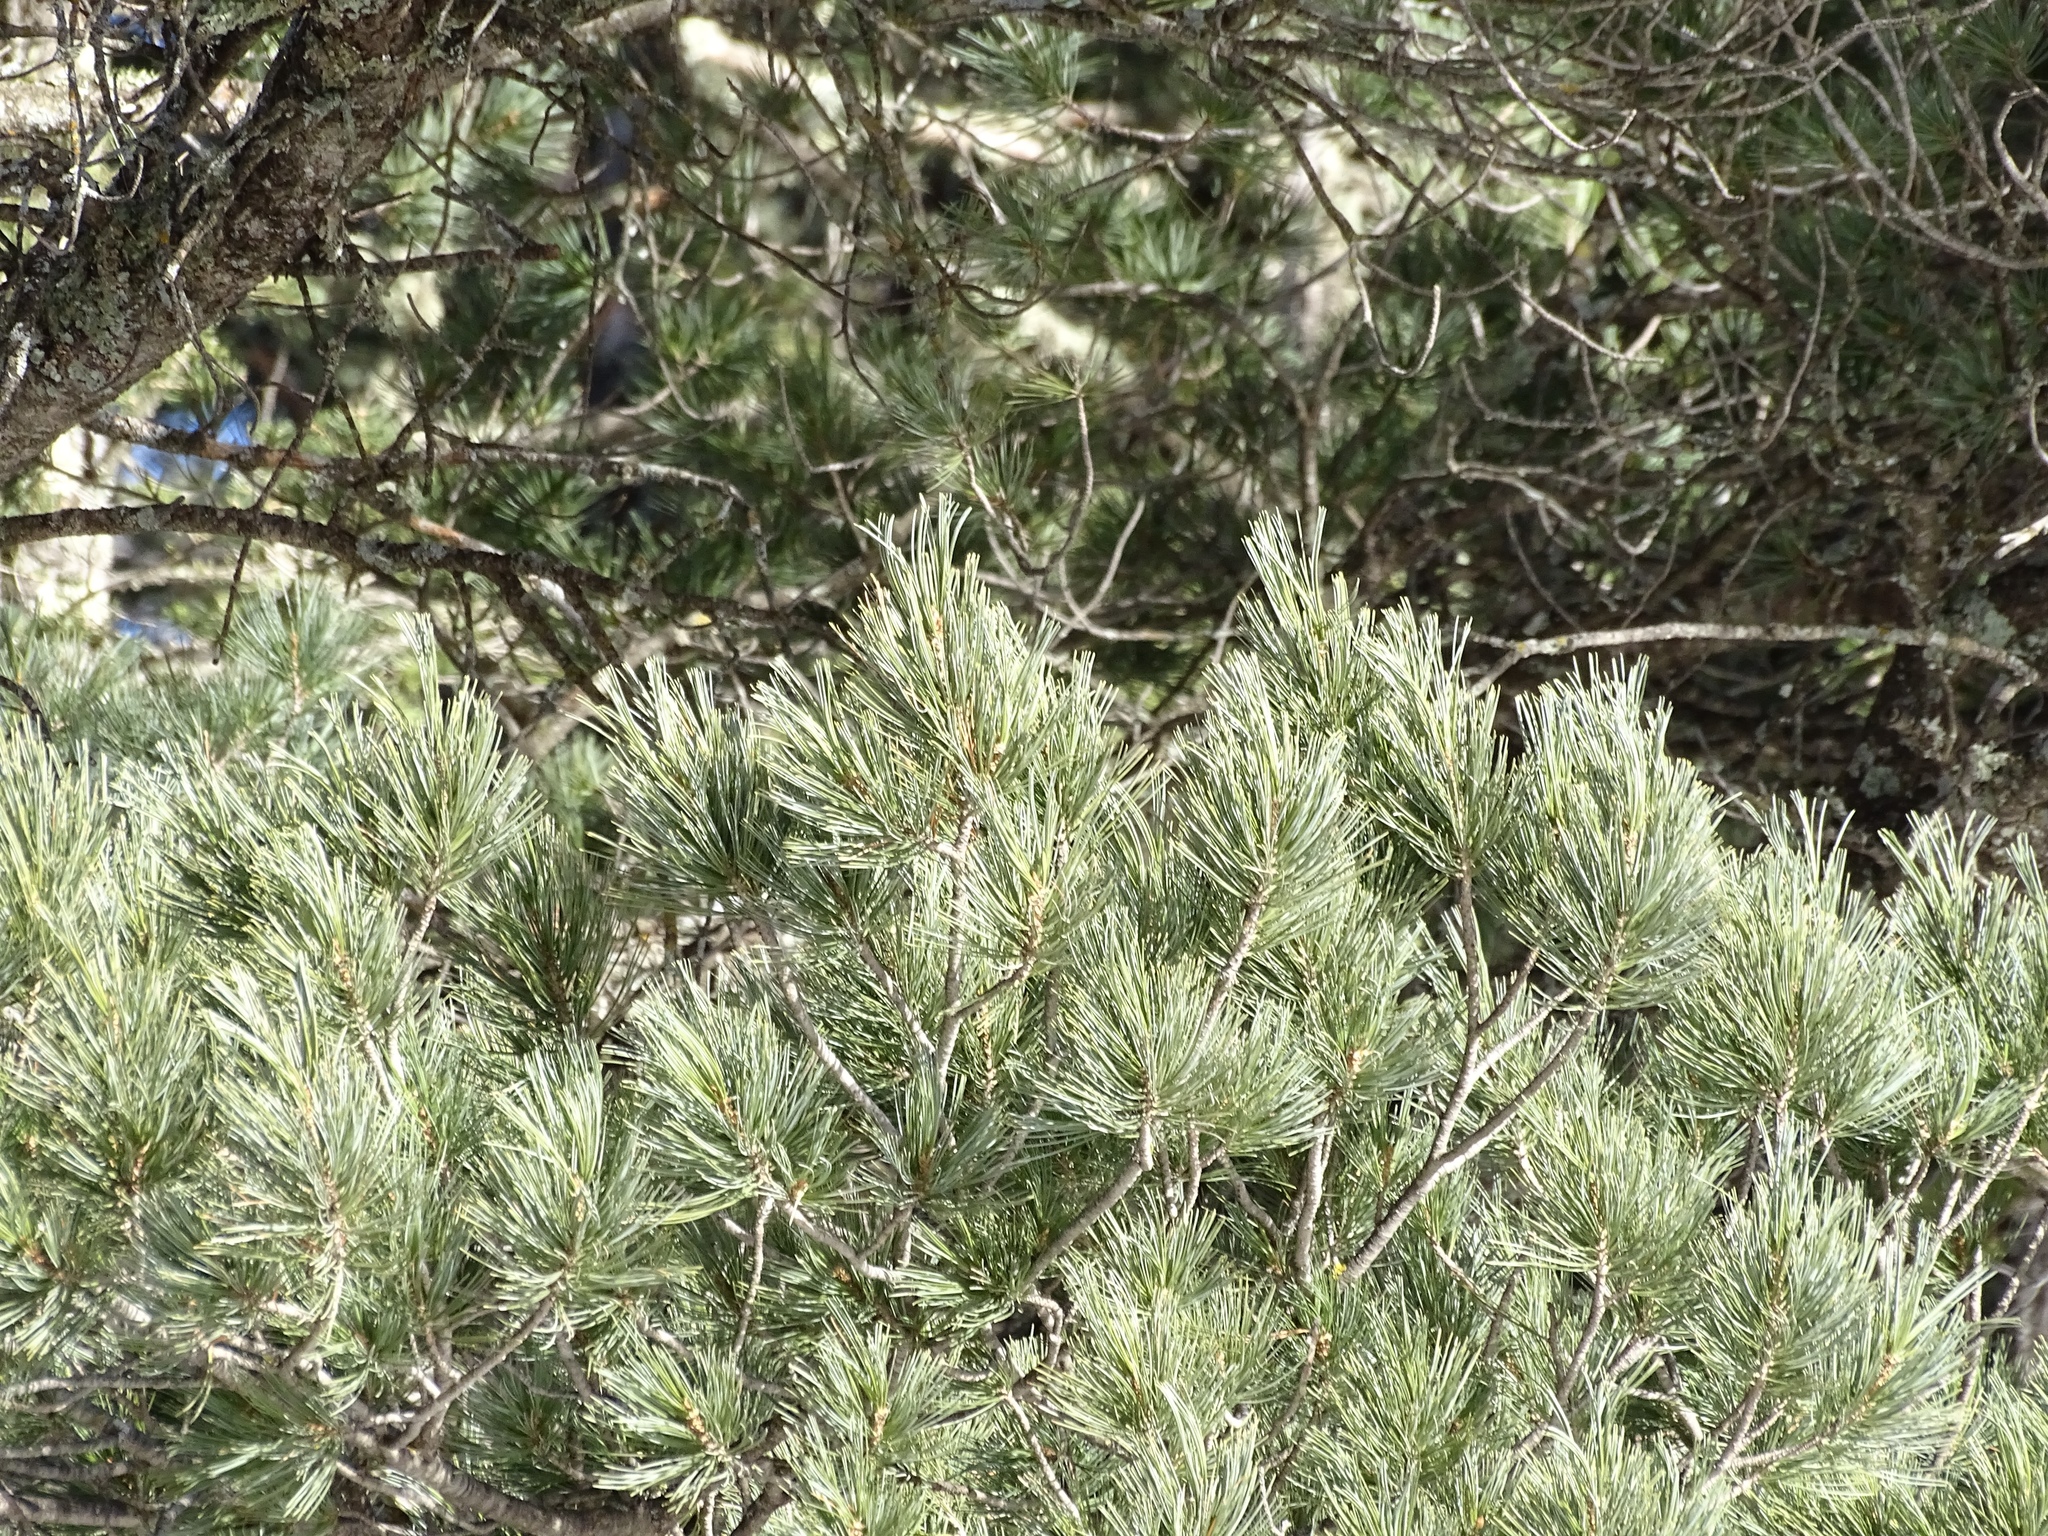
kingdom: Plantae
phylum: Tracheophyta
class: Pinopsida
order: Pinales
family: Pinaceae
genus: Pinus
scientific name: Pinus strobiformis
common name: Southwestern white pine
